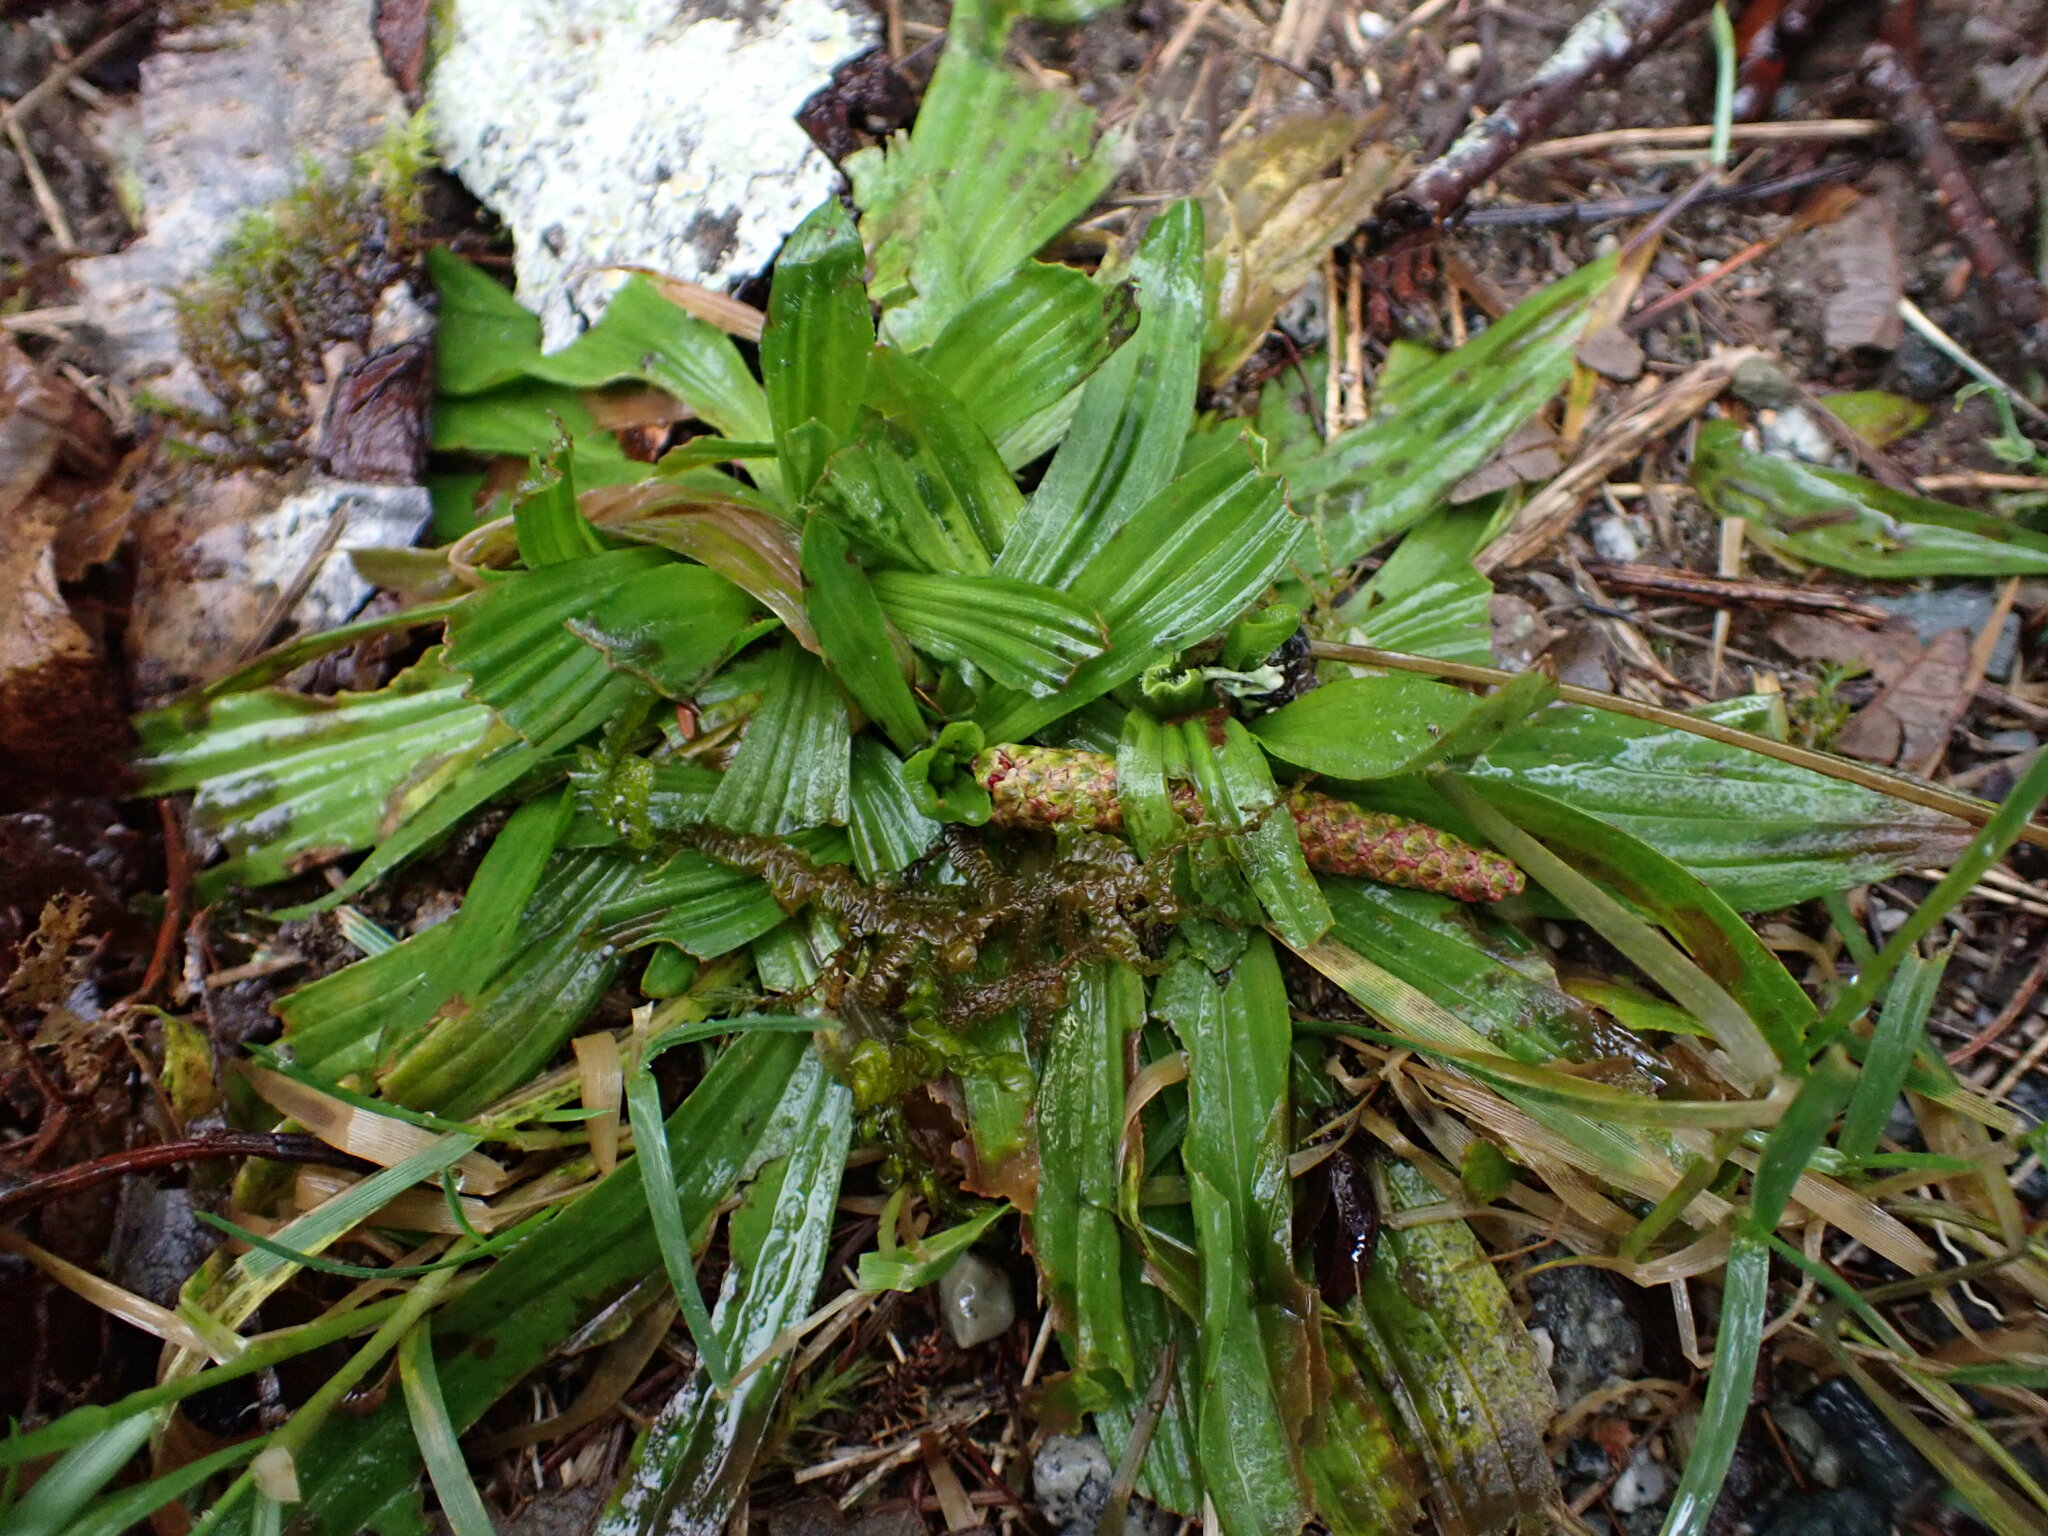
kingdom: Plantae
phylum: Tracheophyta
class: Magnoliopsida
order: Lamiales
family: Plantaginaceae
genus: Plantago
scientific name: Plantago lanceolata
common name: Ribwort plantain
